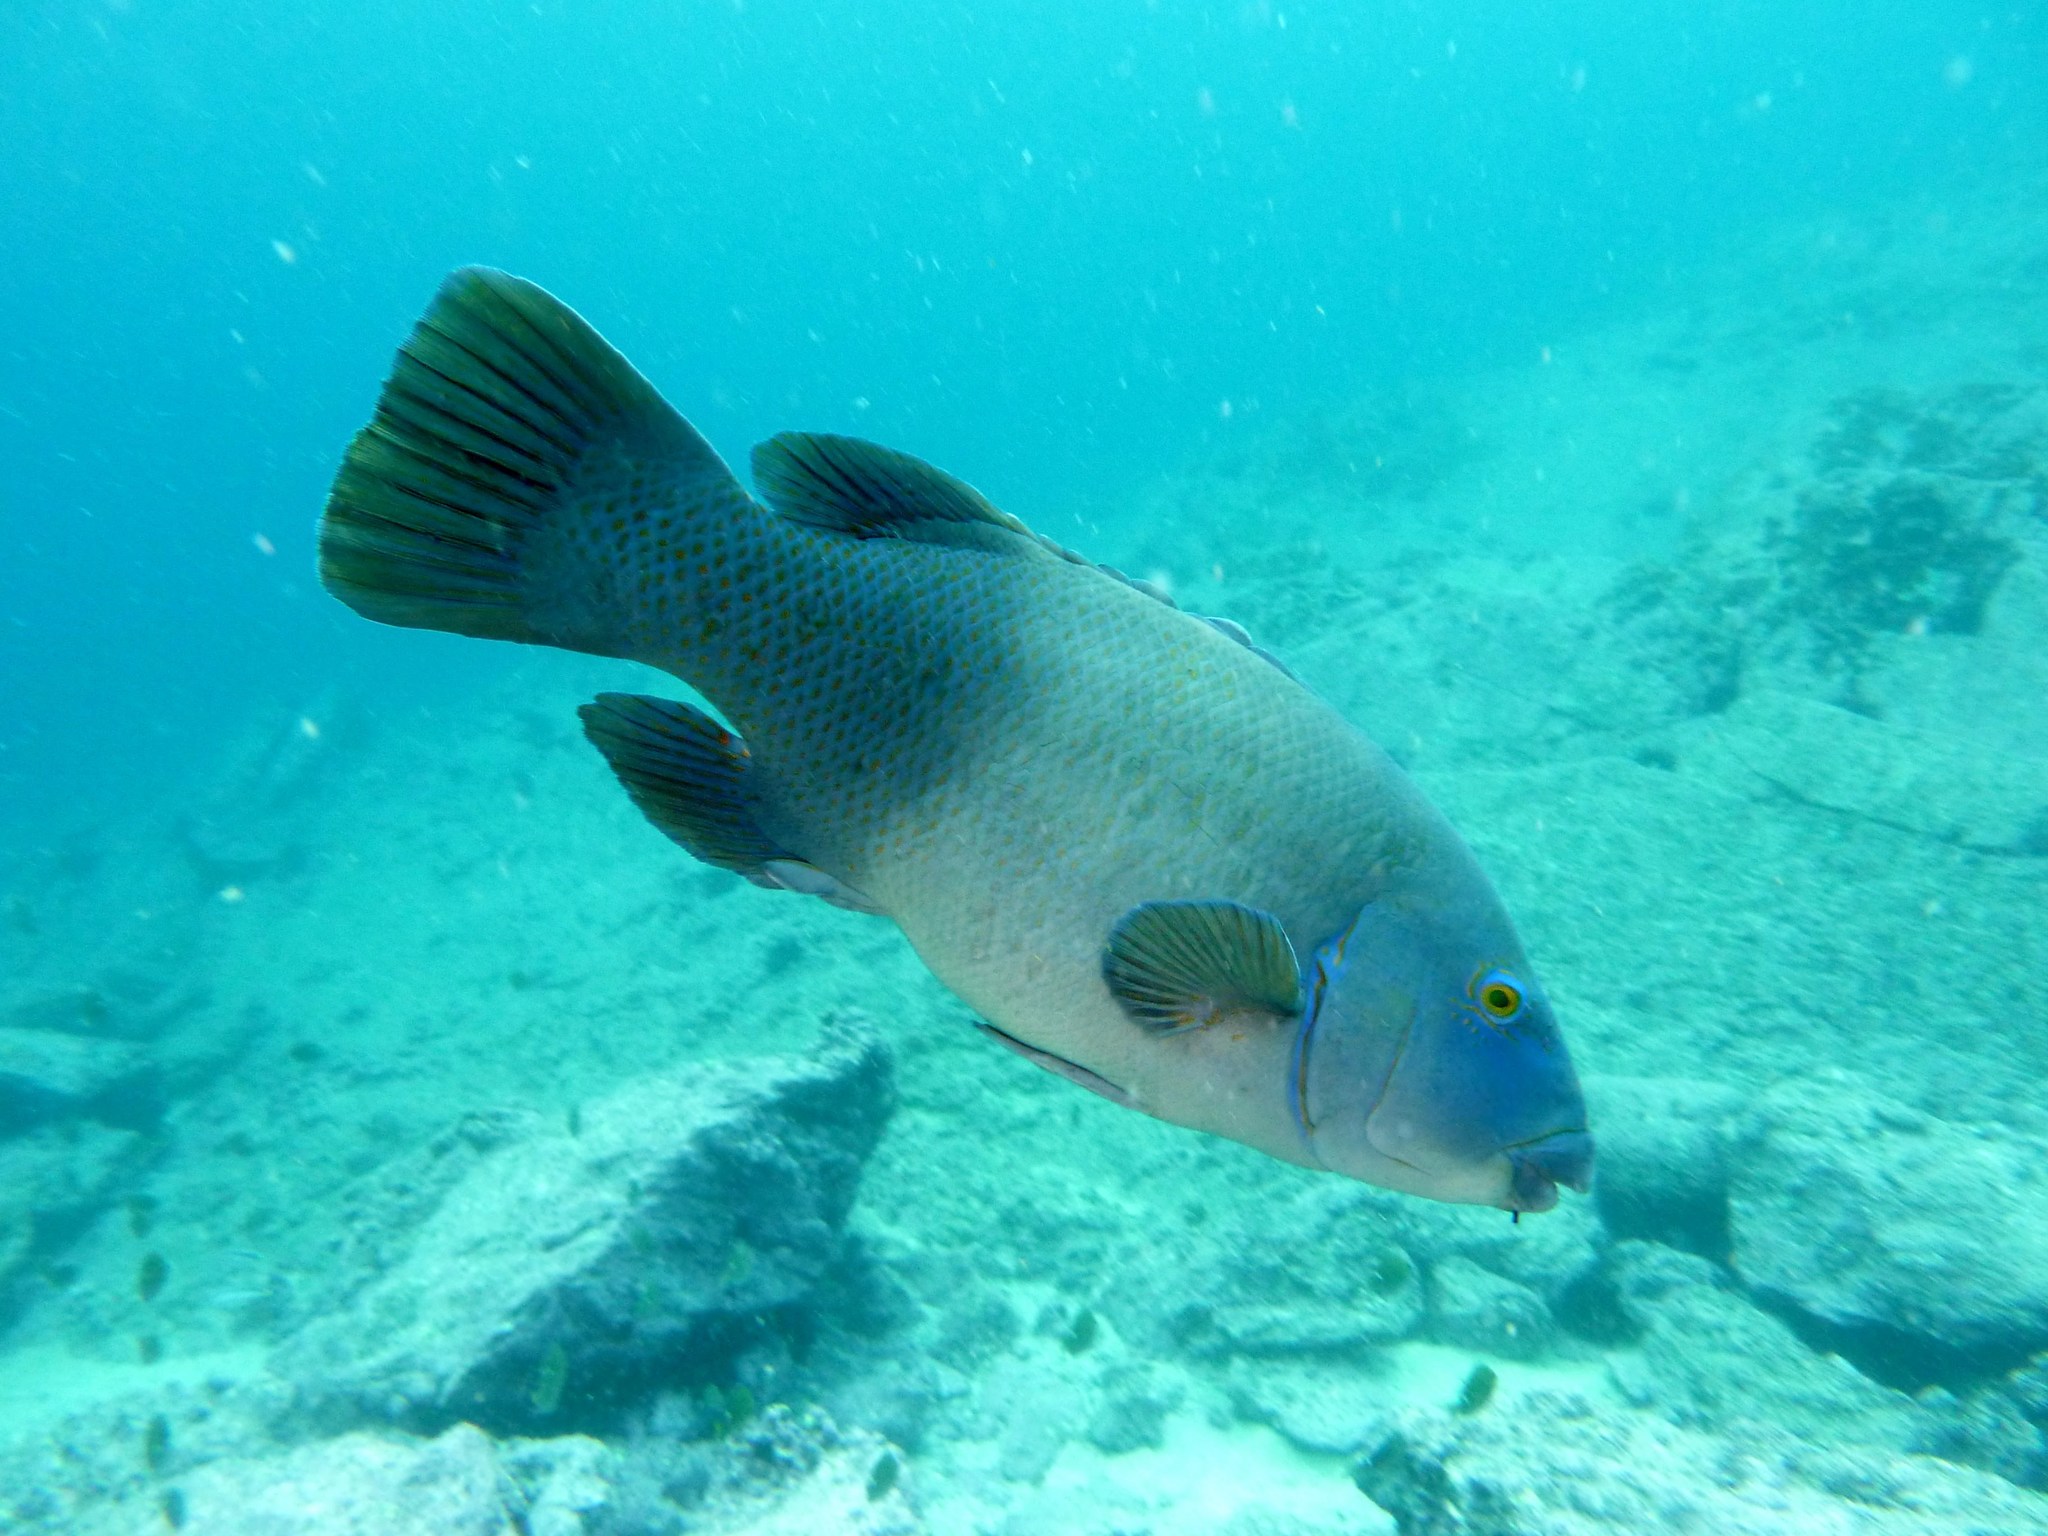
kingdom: Animalia
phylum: Chordata
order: Perciformes
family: Labridae
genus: Achoerodus
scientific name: Achoerodus viridis
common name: Brown groper
